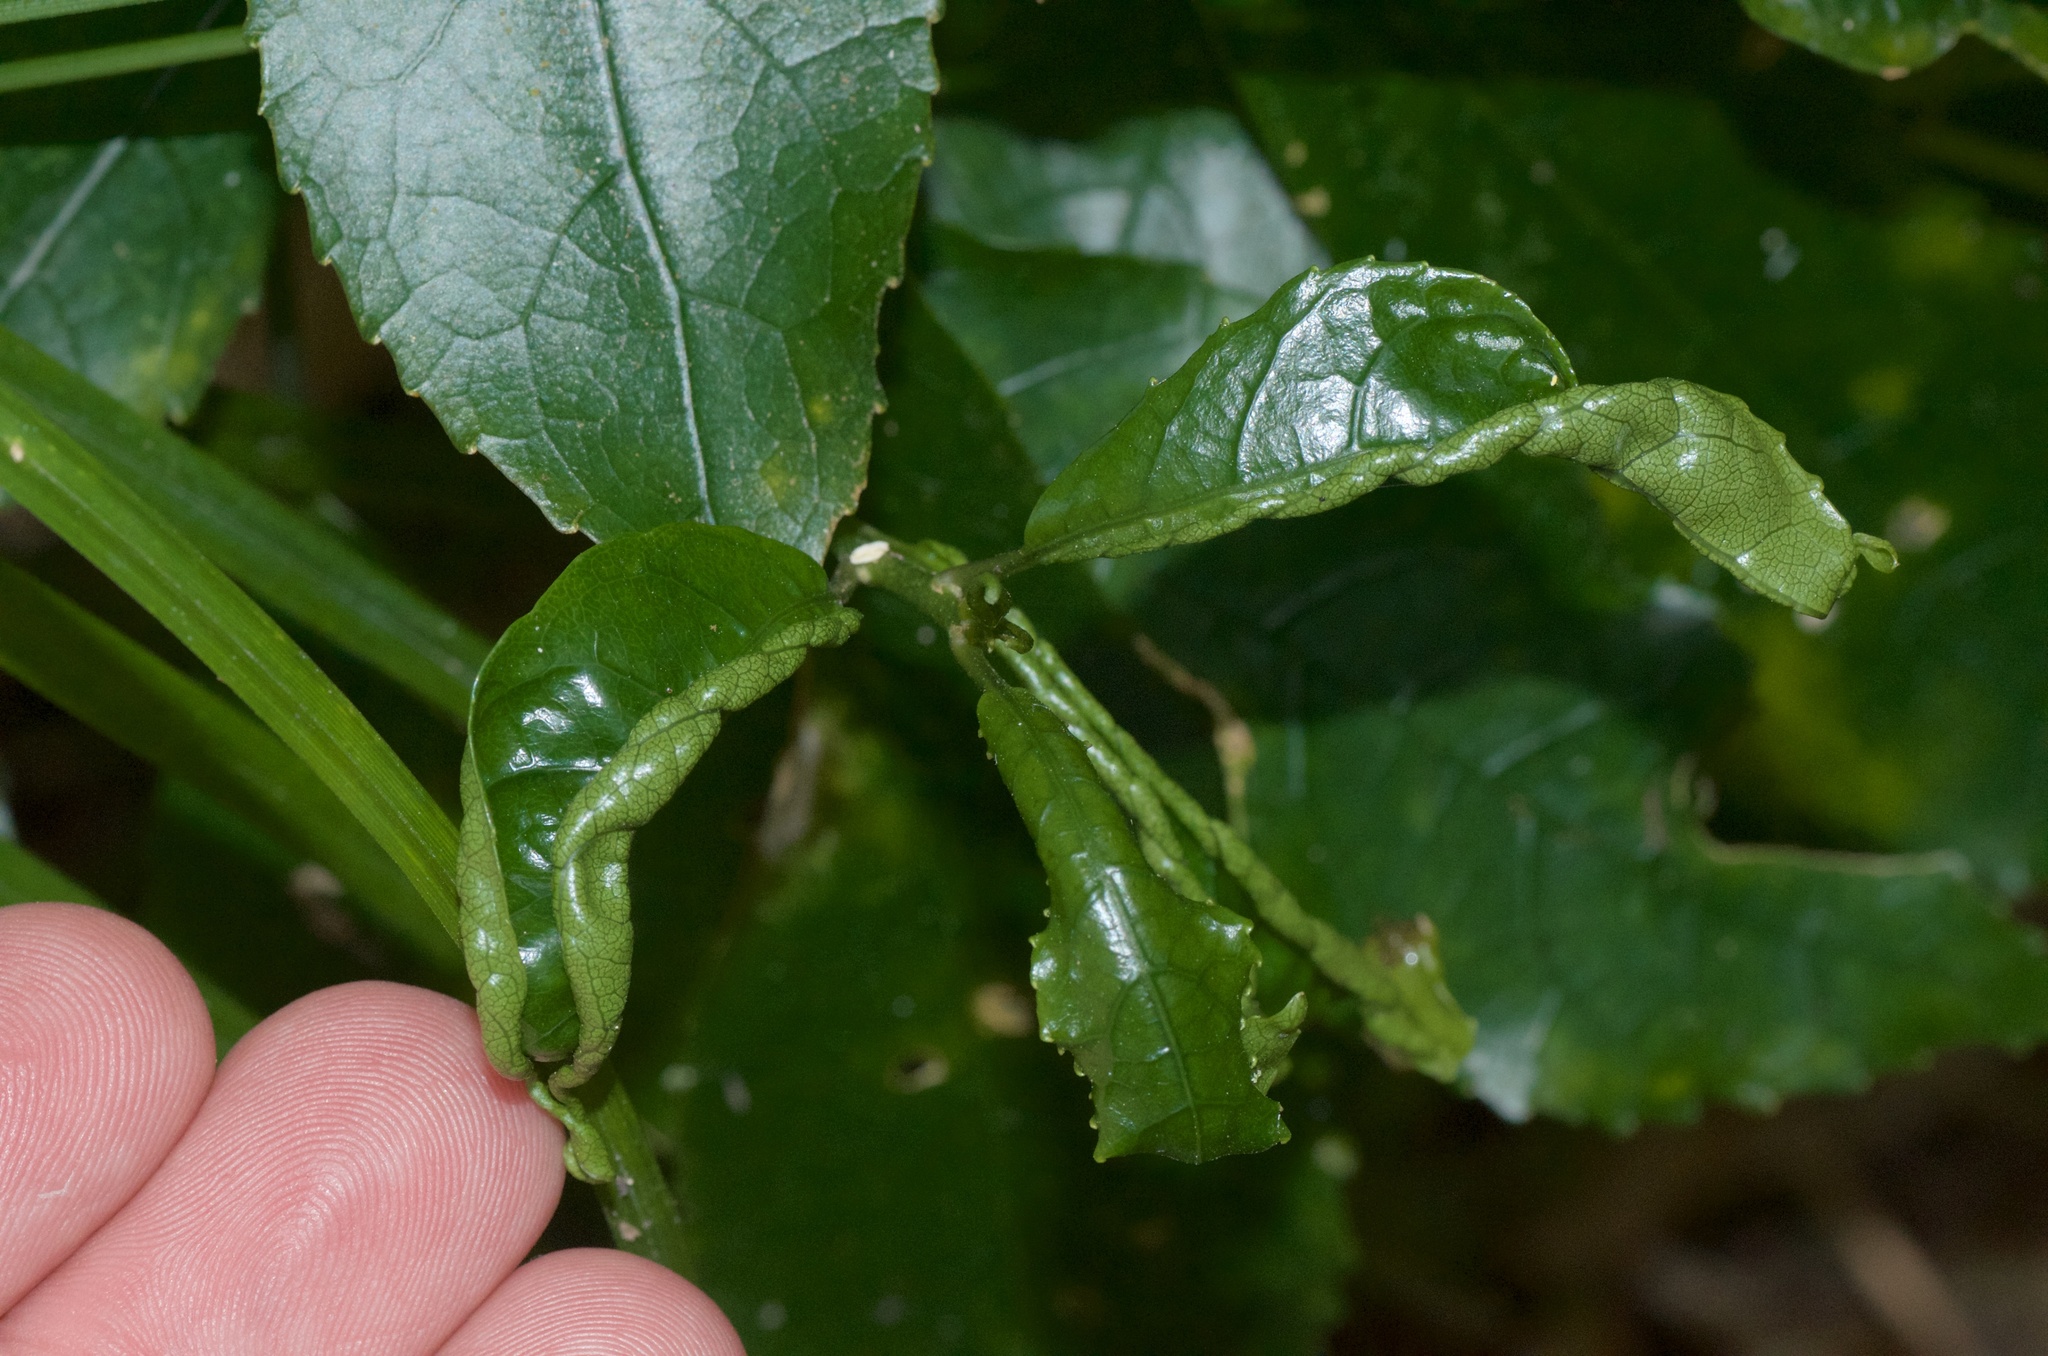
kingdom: Animalia
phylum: Arthropoda
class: Arachnida
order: Trombidiformes
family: Eriophyidae
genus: Aceria
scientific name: Aceria
